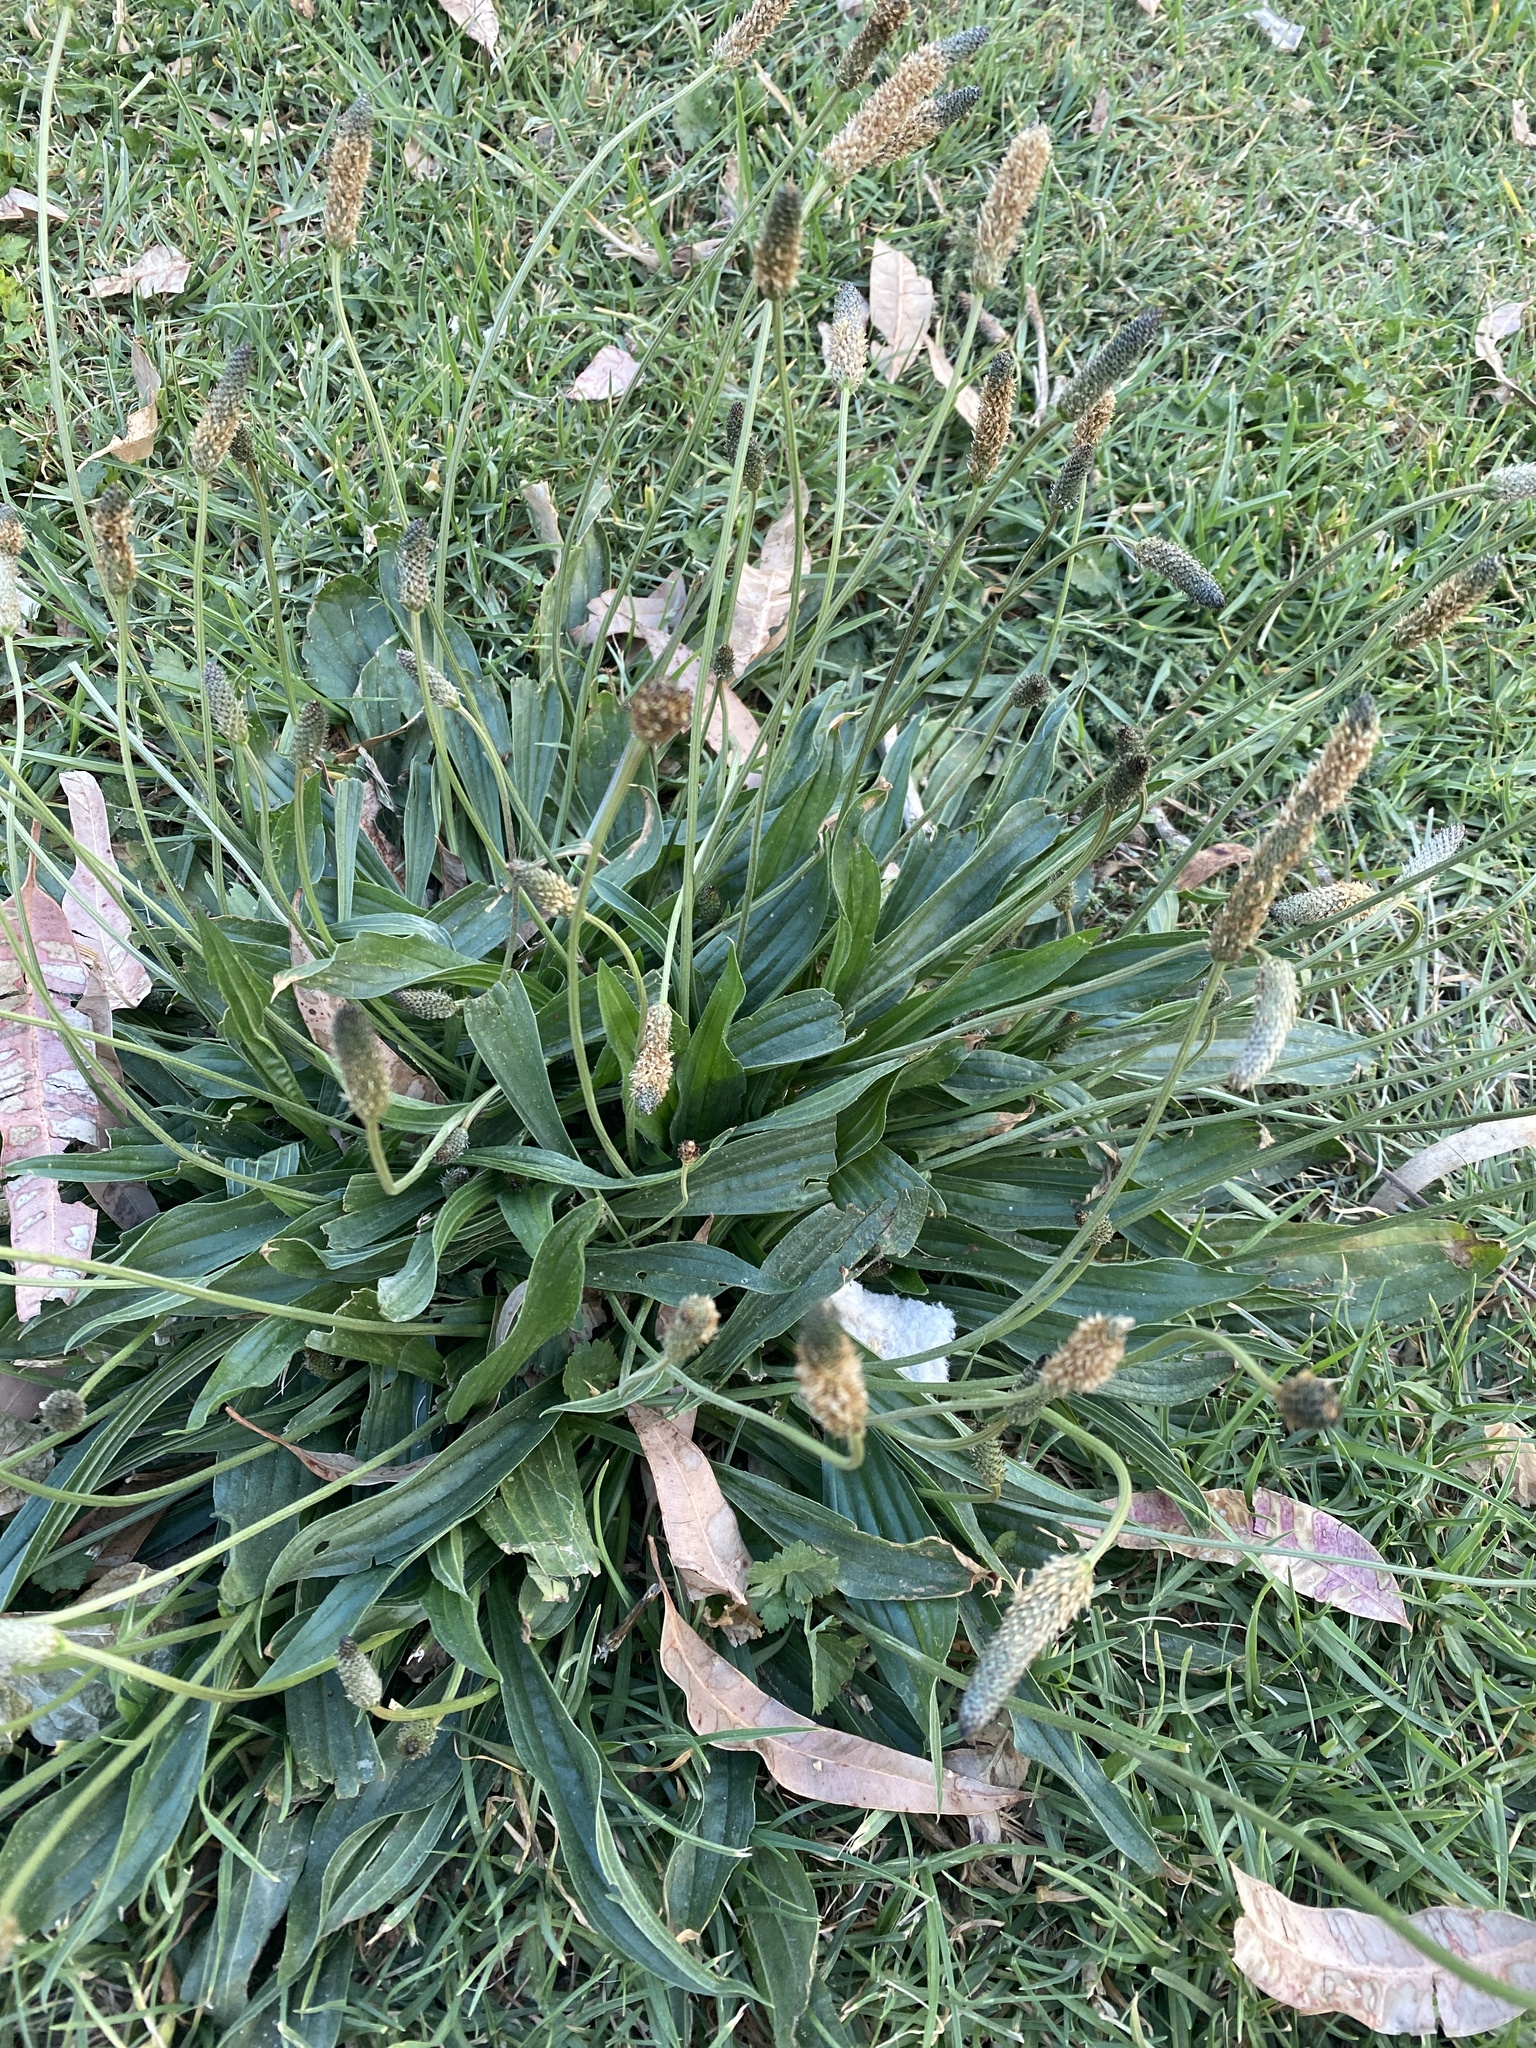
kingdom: Plantae
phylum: Tracheophyta
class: Magnoliopsida
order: Lamiales
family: Plantaginaceae
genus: Plantago
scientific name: Plantago lanceolata
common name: Ribwort plantain
